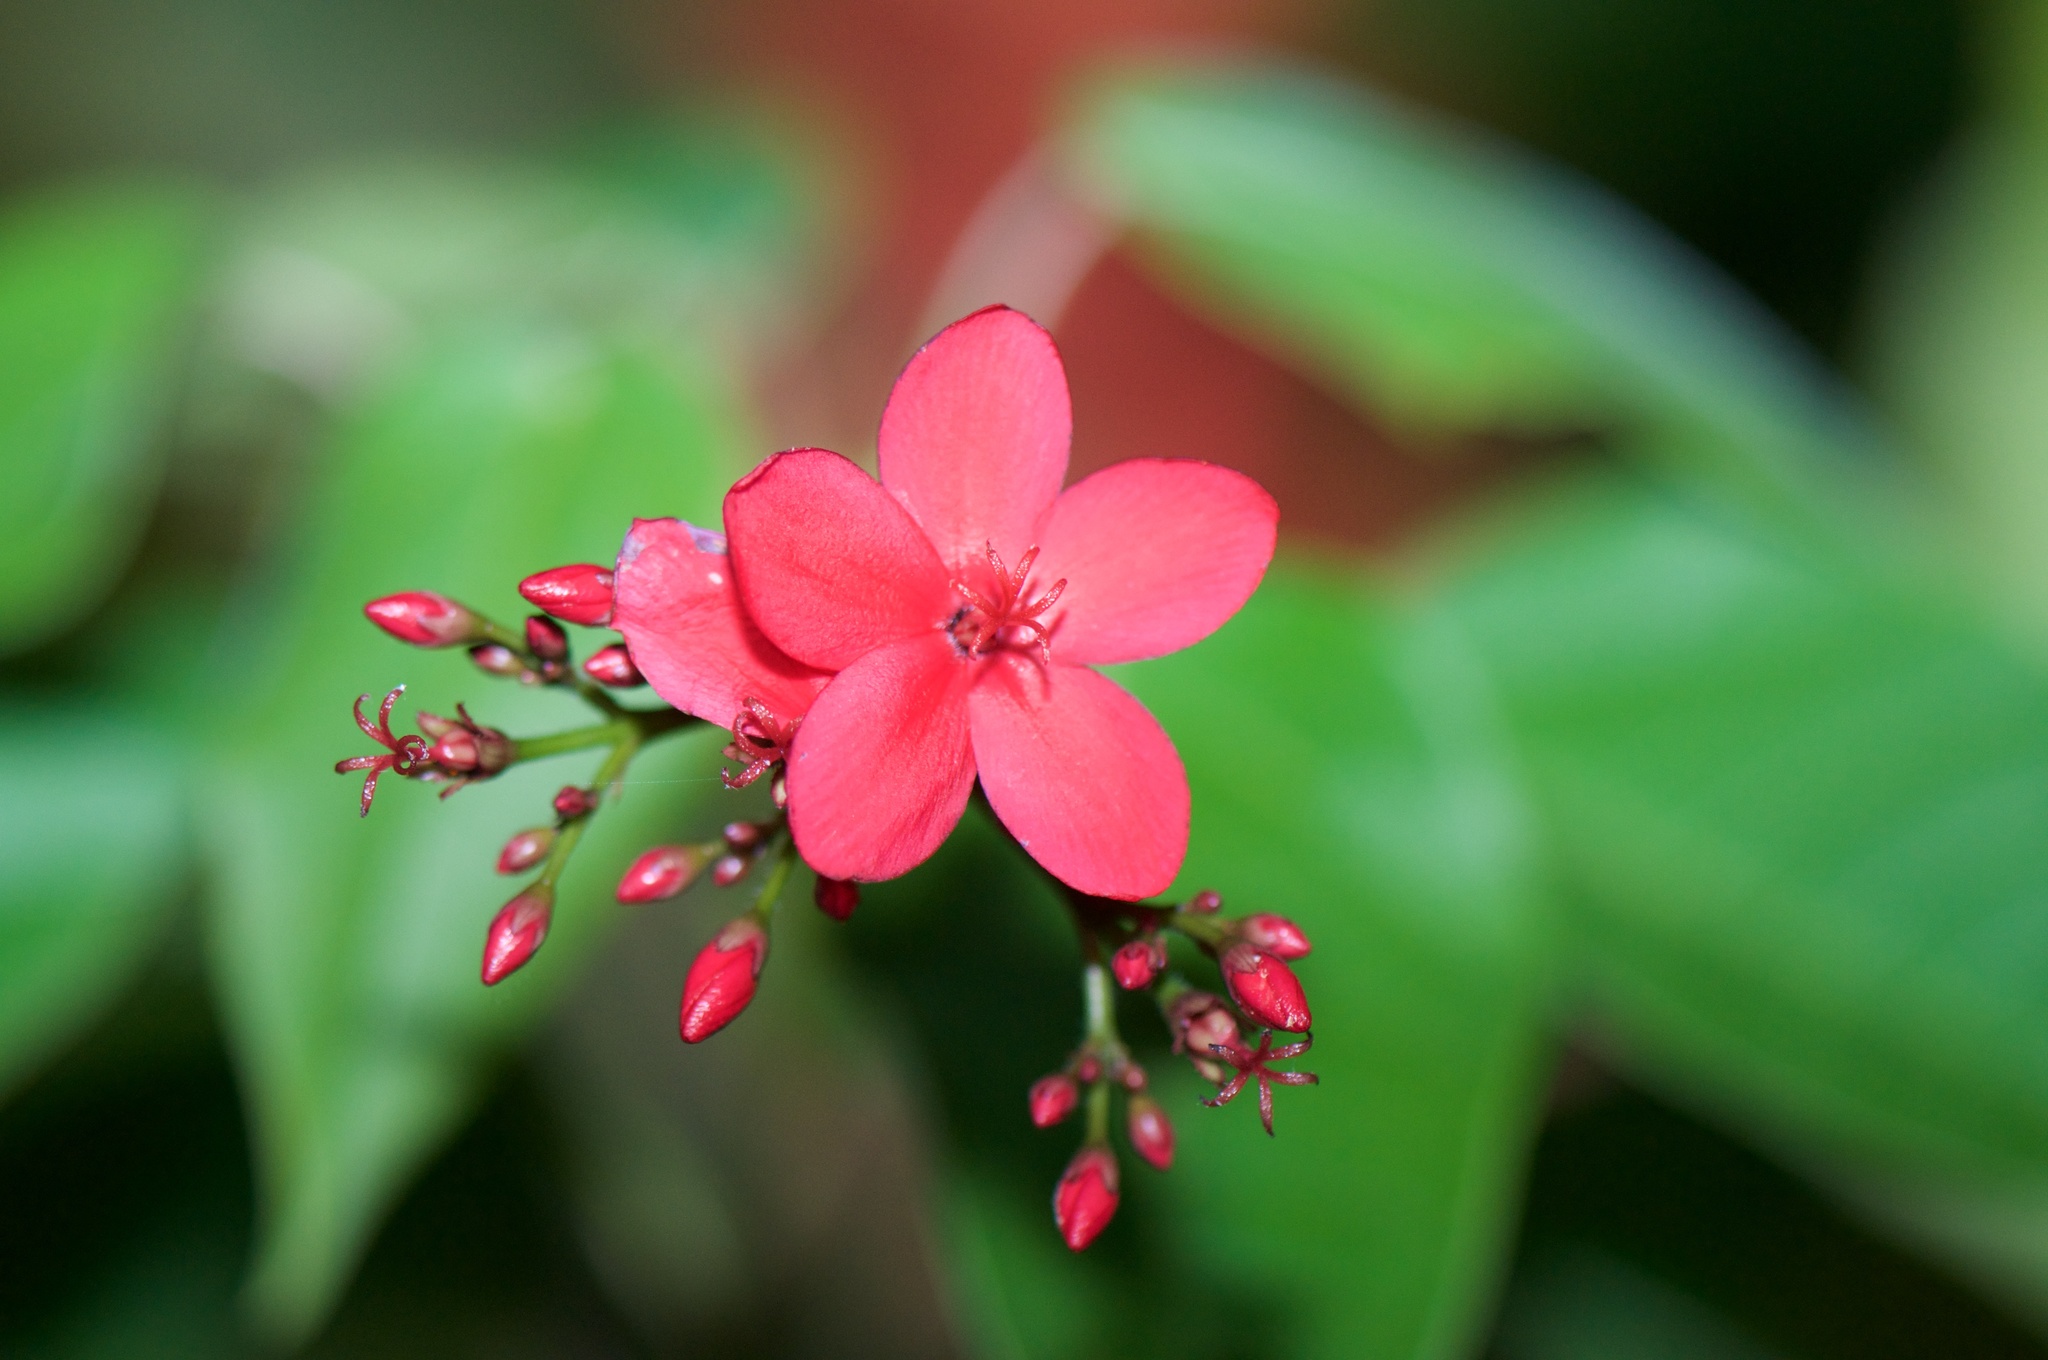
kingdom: Plantae
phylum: Tracheophyta
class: Magnoliopsida
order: Malpighiales
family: Euphorbiaceae
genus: Jatropha
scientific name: Jatropha integerrima
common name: Peregrina
